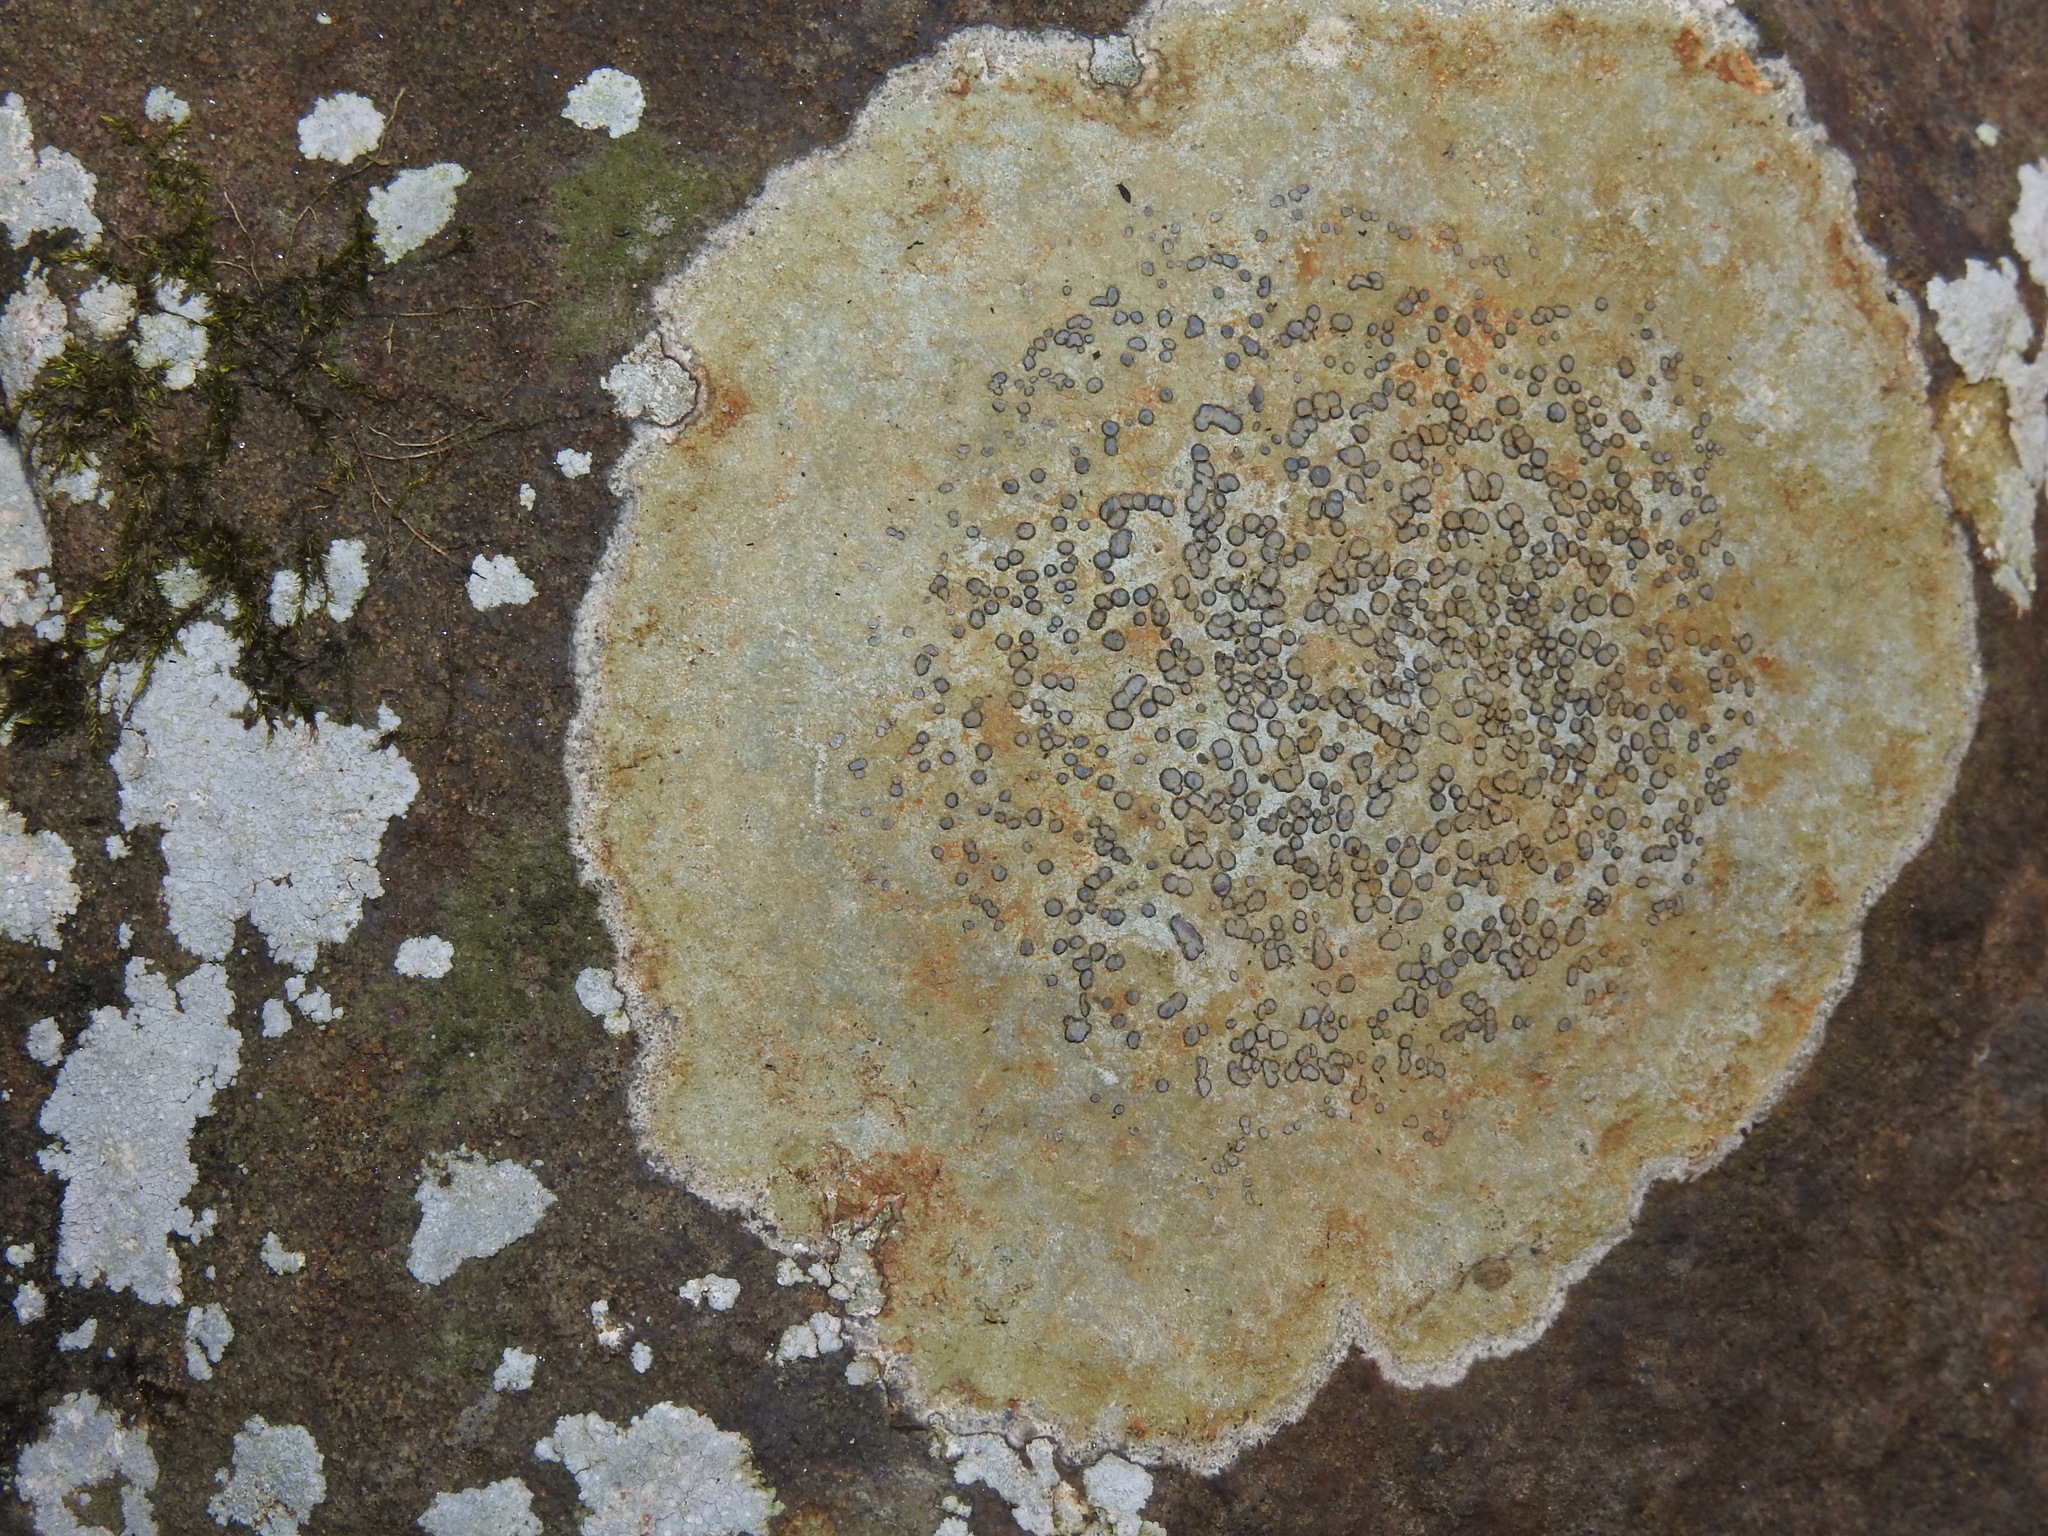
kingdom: Fungi
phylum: Ascomycota
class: Lecanoromycetes
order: Lecideales
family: Lecideaceae
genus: Porpidia
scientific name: Porpidia albocaerulescens
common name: Smokey-eyed boulder lichen
